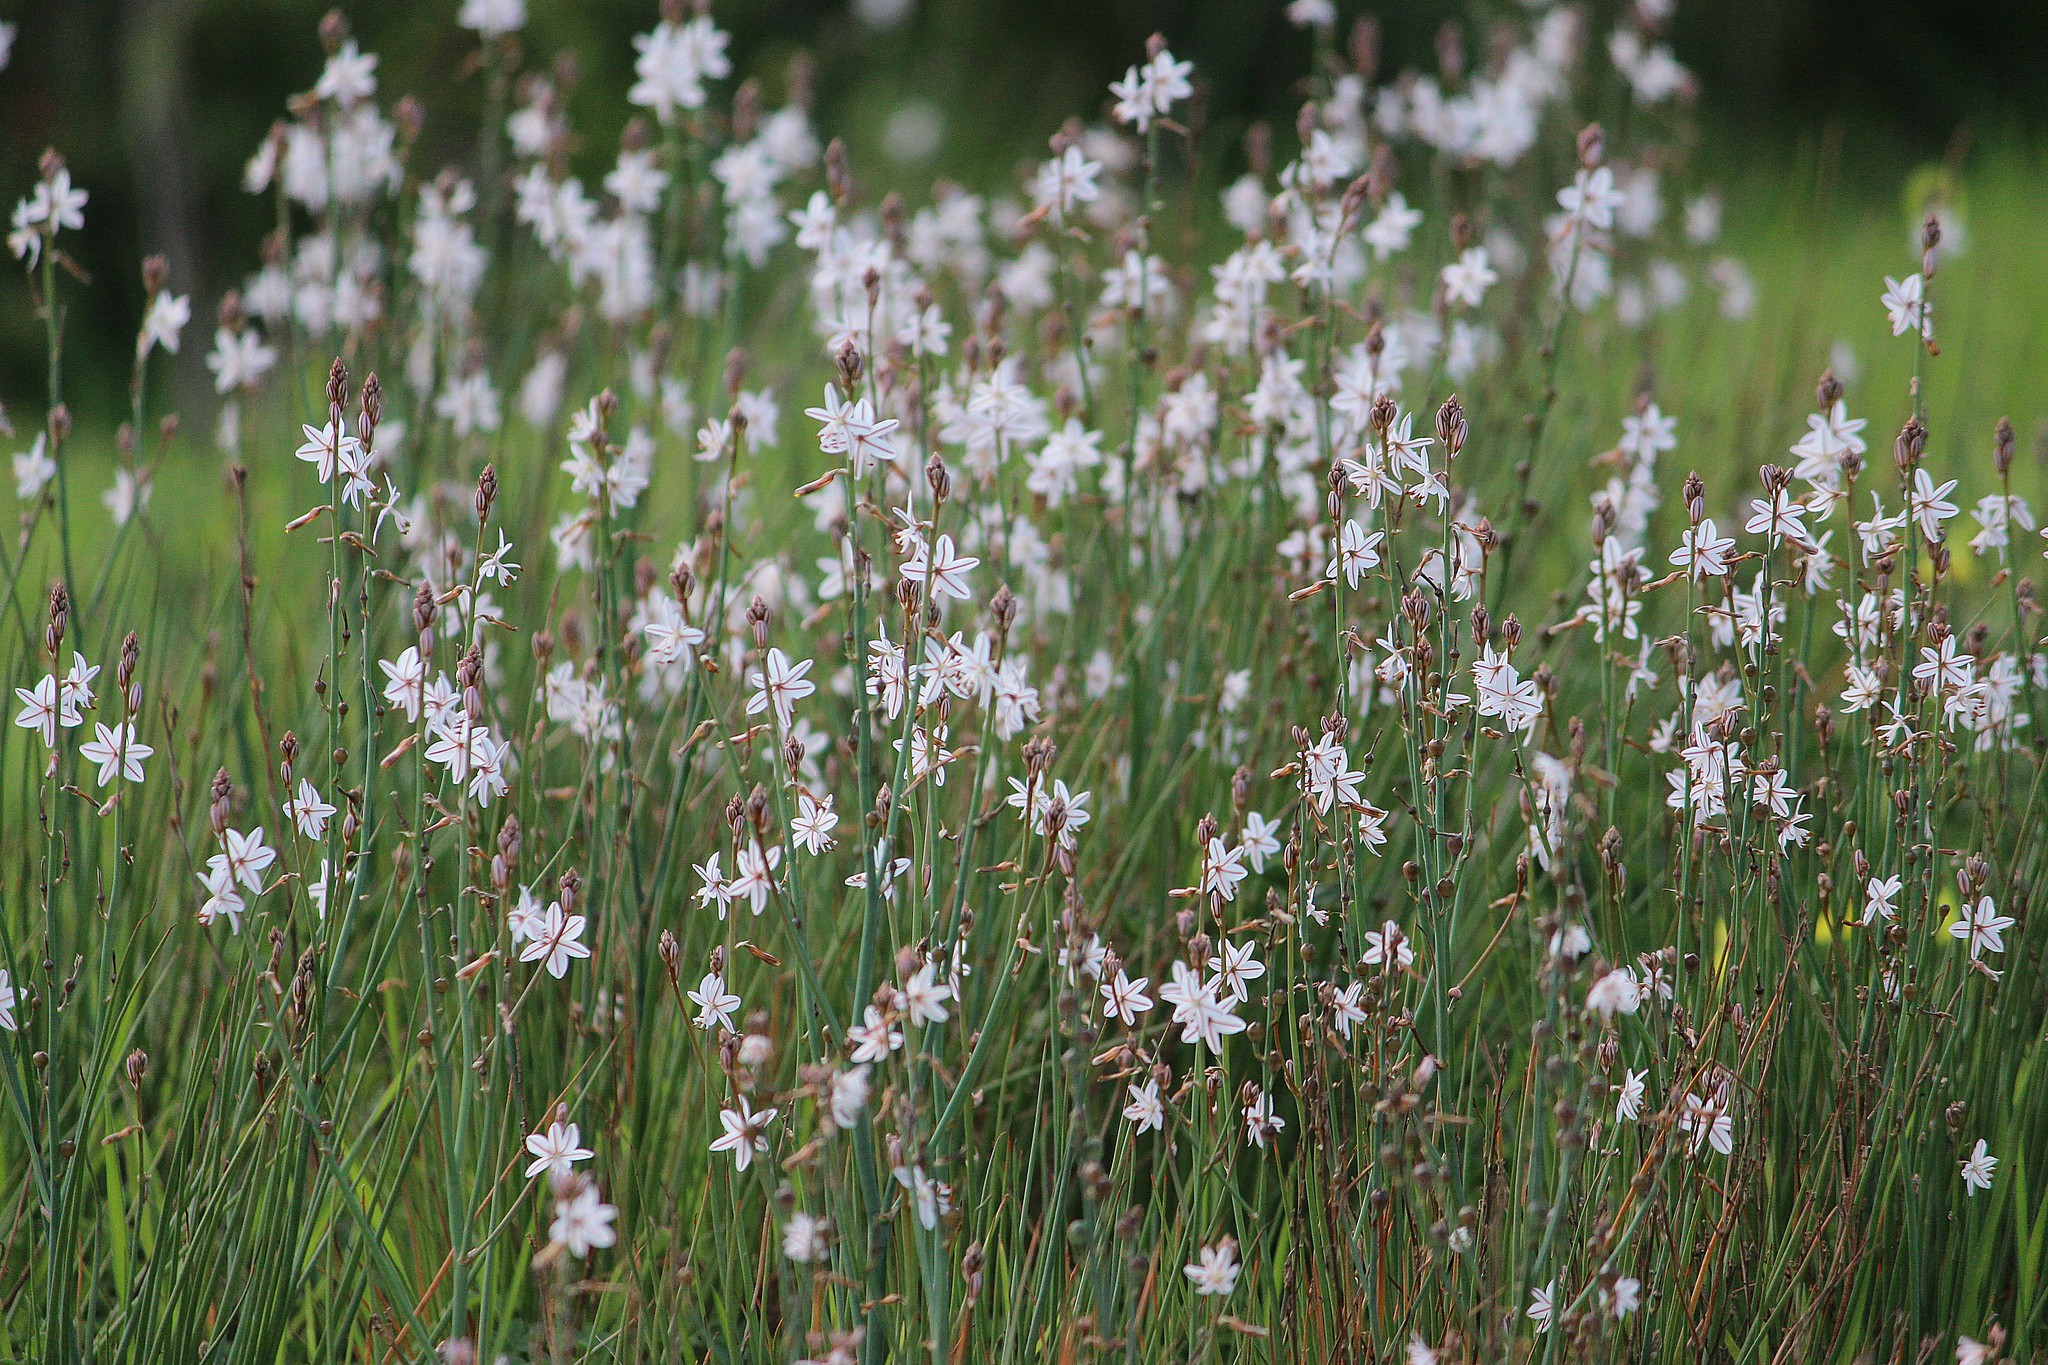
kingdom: Plantae
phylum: Tracheophyta
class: Liliopsida
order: Asparagales
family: Asphodelaceae
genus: Asphodelus
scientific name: Asphodelus fistulosus
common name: Onionweed
